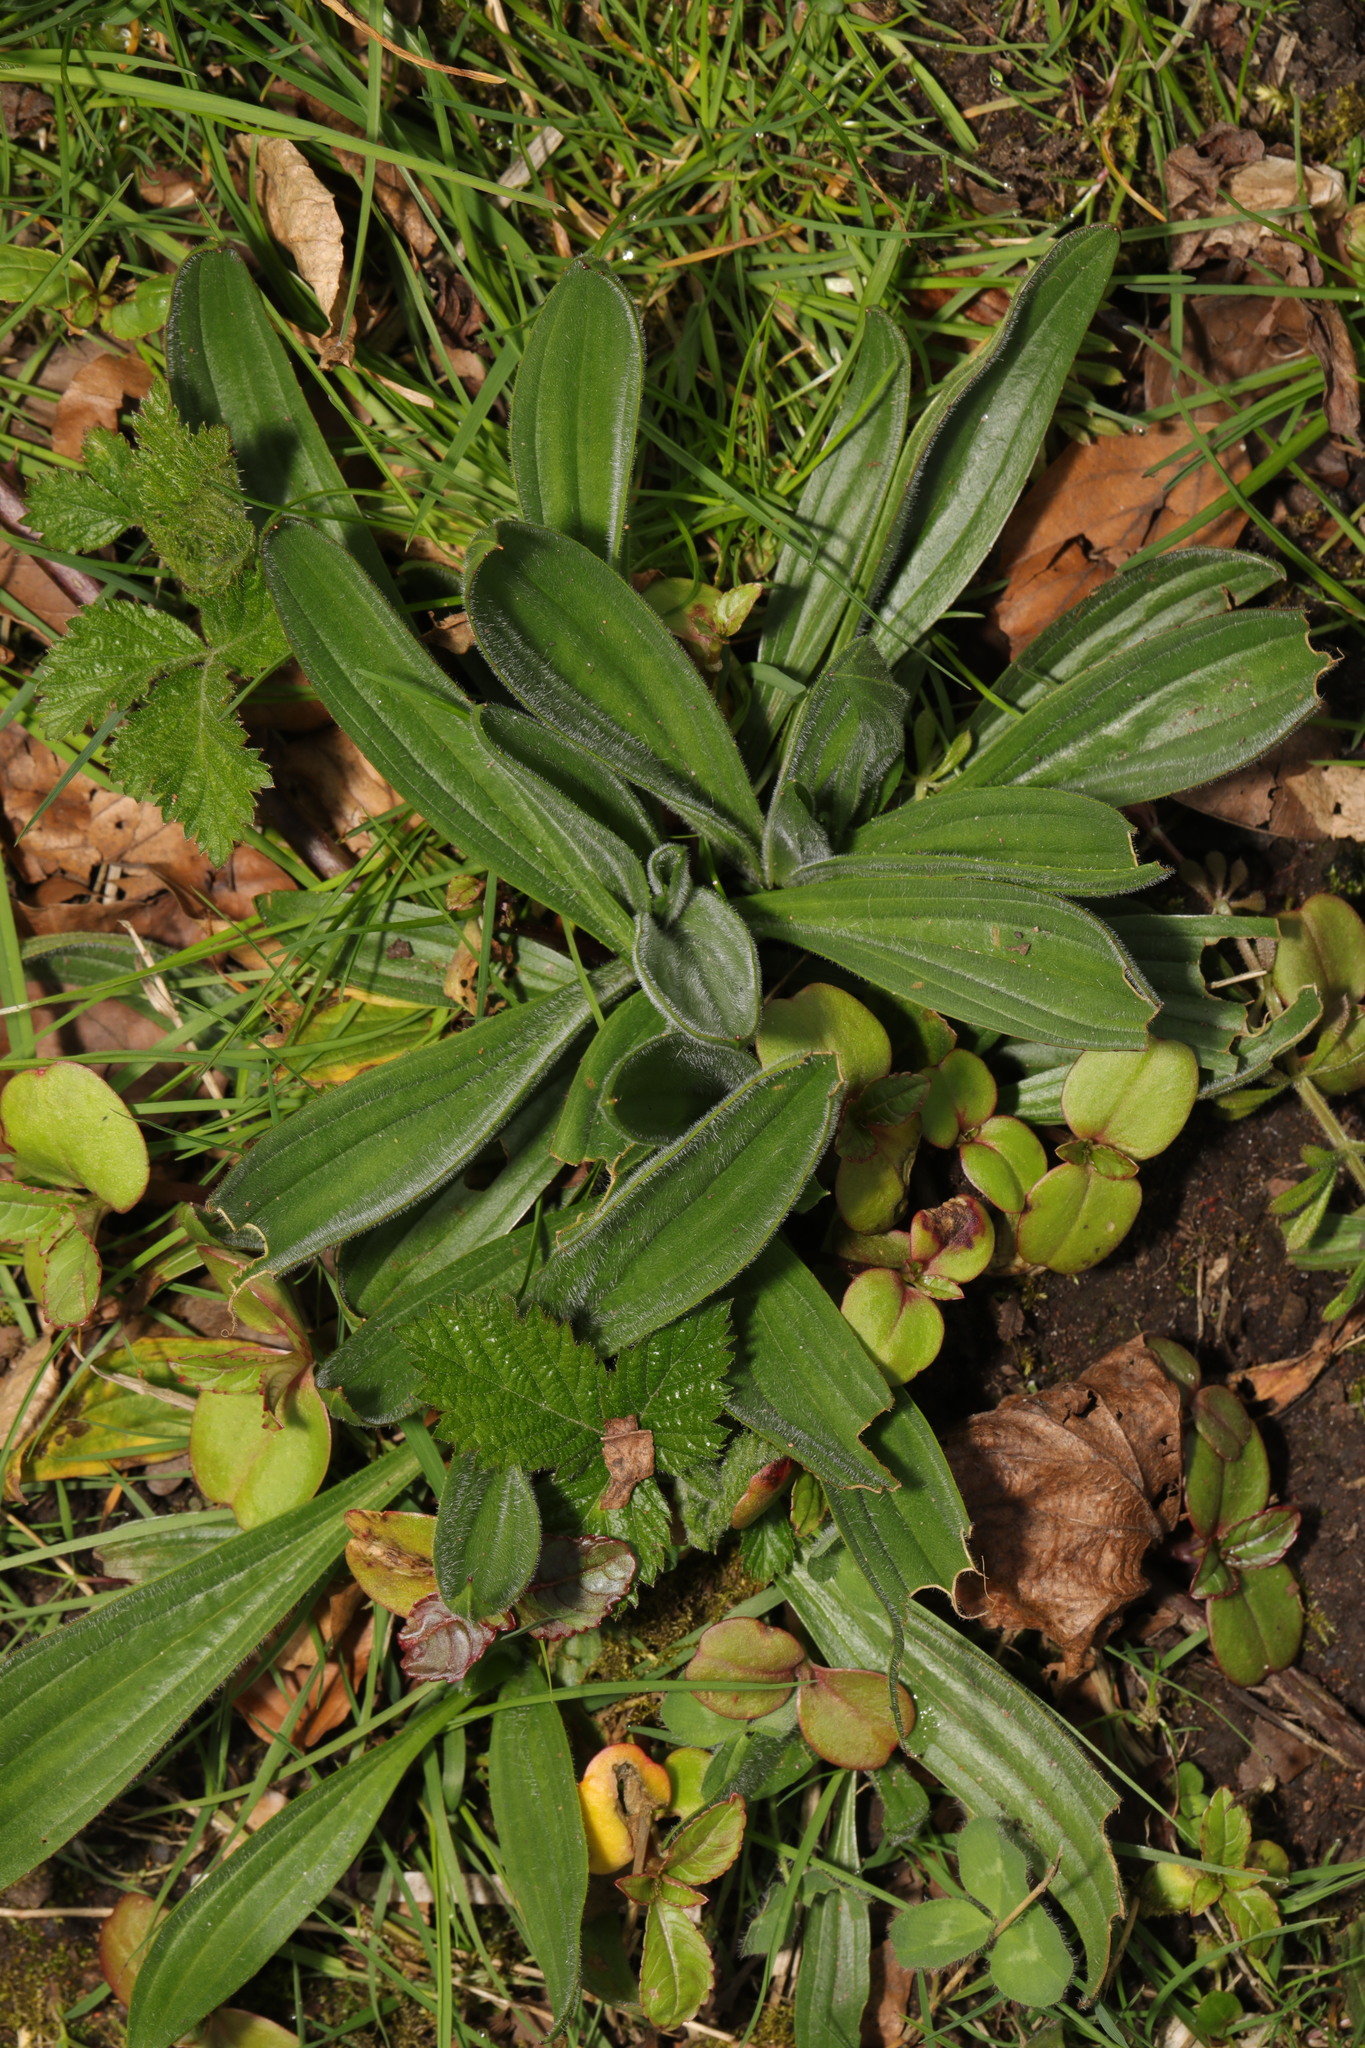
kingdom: Plantae
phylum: Tracheophyta
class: Magnoliopsida
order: Lamiales
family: Plantaginaceae
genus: Plantago
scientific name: Plantago lanceolata
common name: Ribwort plantain
